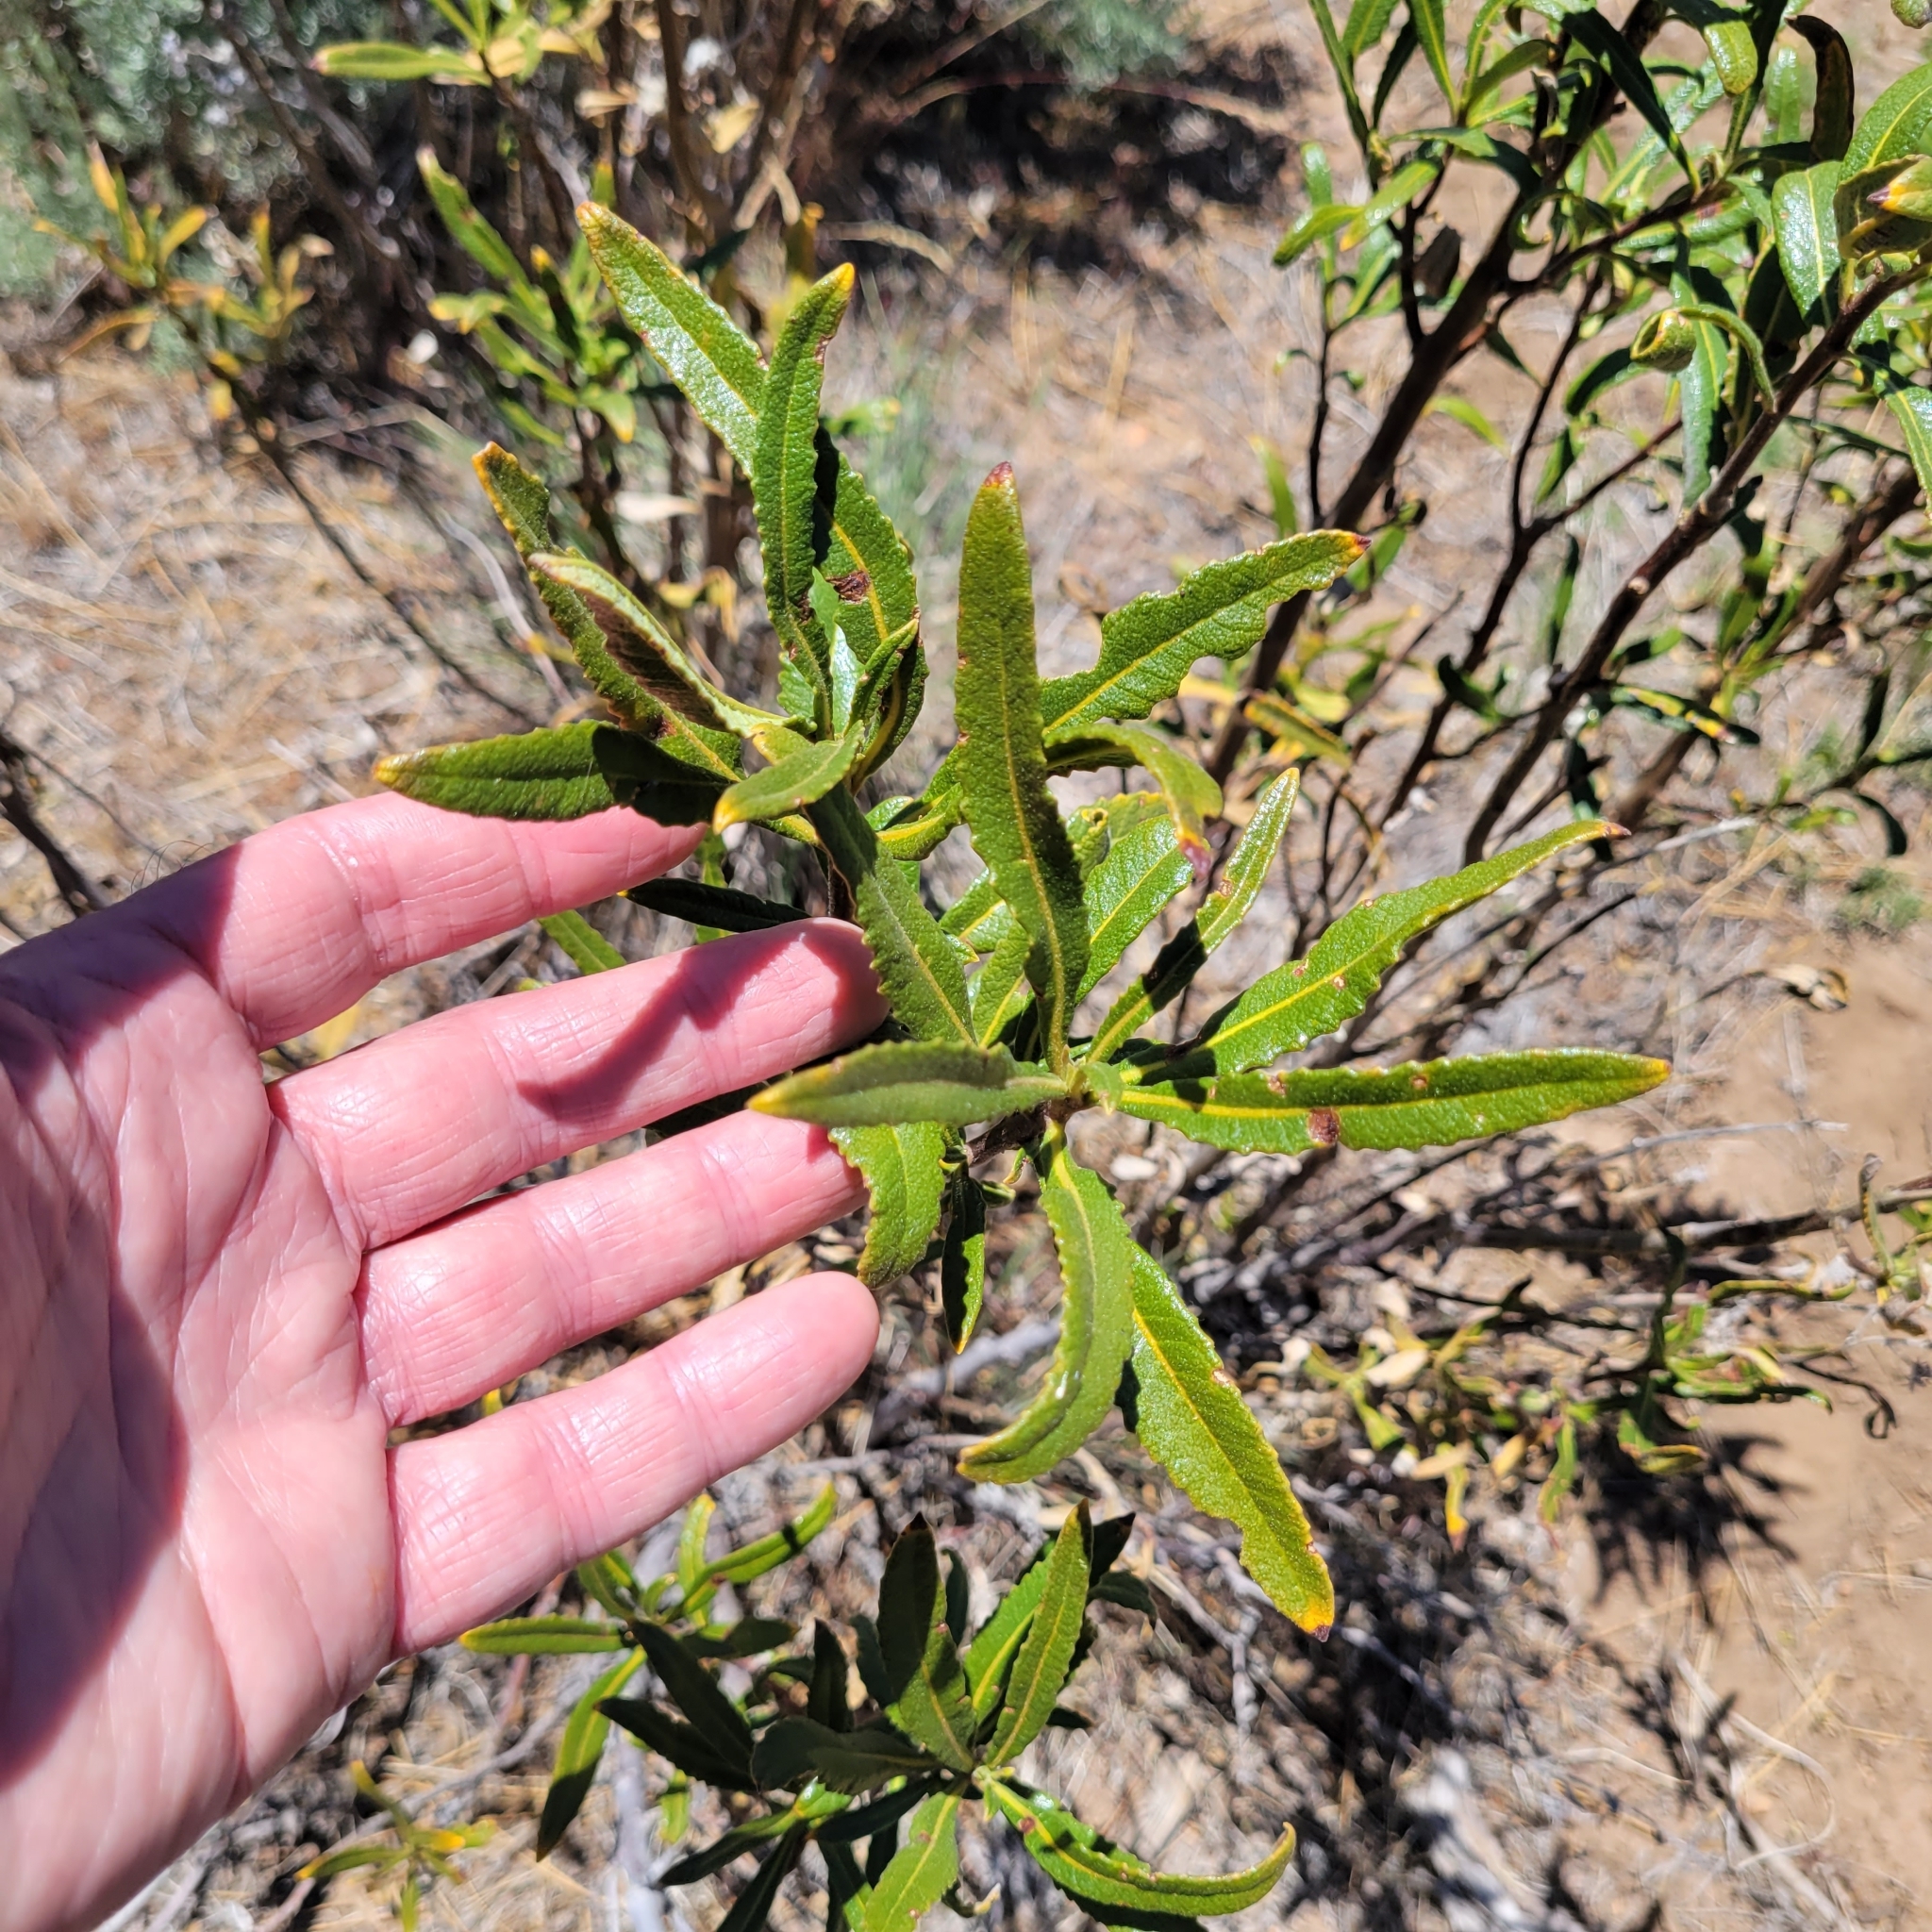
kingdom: Plantae
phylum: Tracheophyta
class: Magnoliopsida
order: Boraginales
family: Namaceae
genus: Eriodictyon
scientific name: Eriodictyon trichocalyx
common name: Hairy yerba-santa
